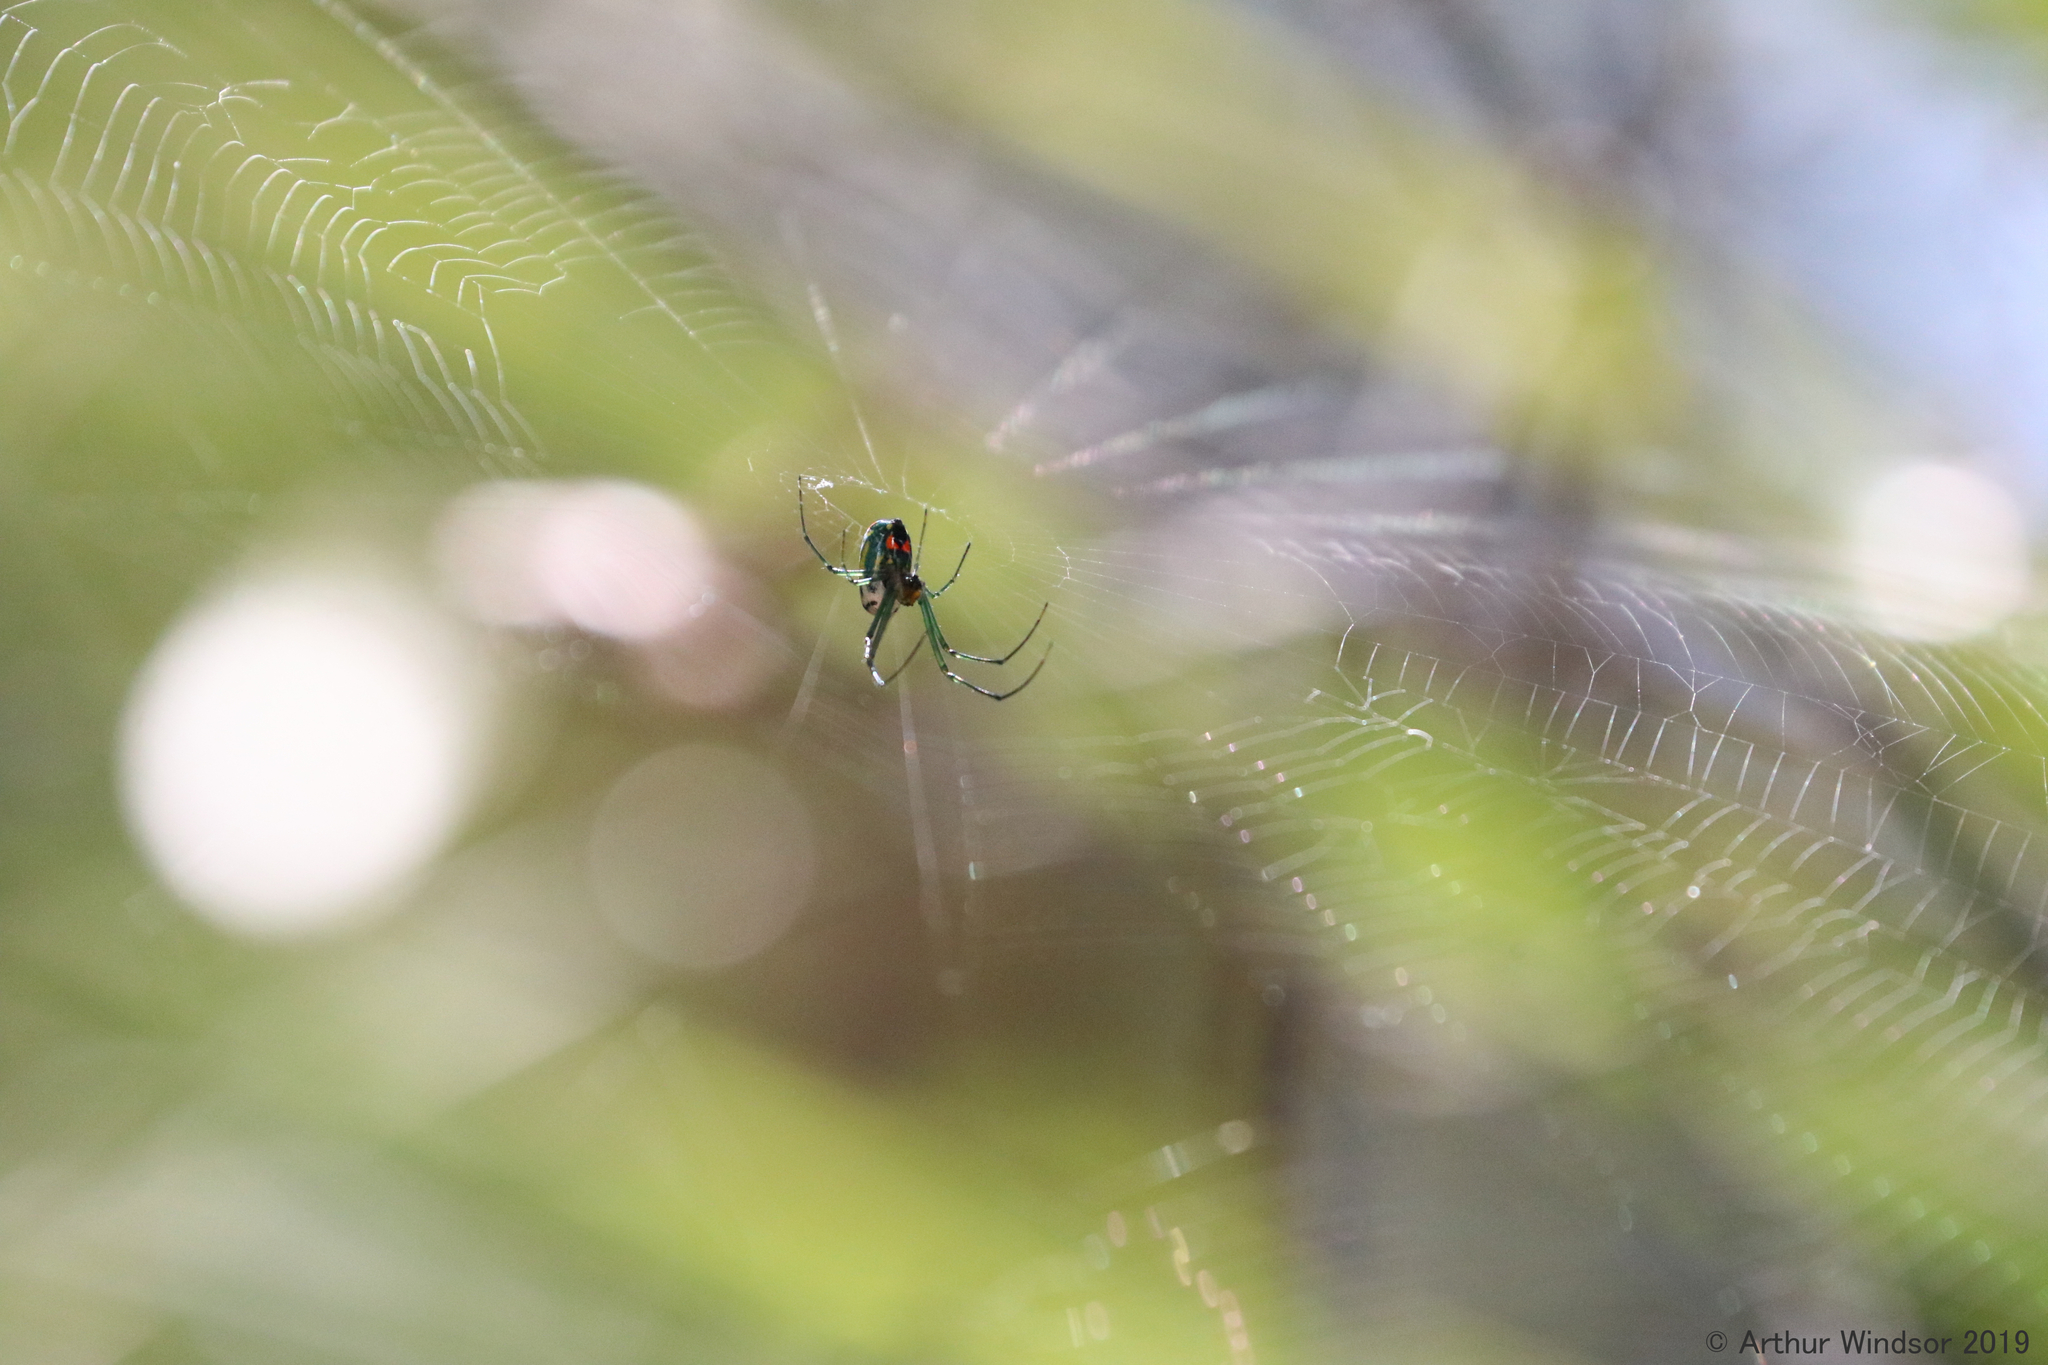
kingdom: Animalia
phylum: Arthropoda
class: Arachnida
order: Araneae
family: Tetragnathidae
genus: Leucauge
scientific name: Leucauge argyrobapta
